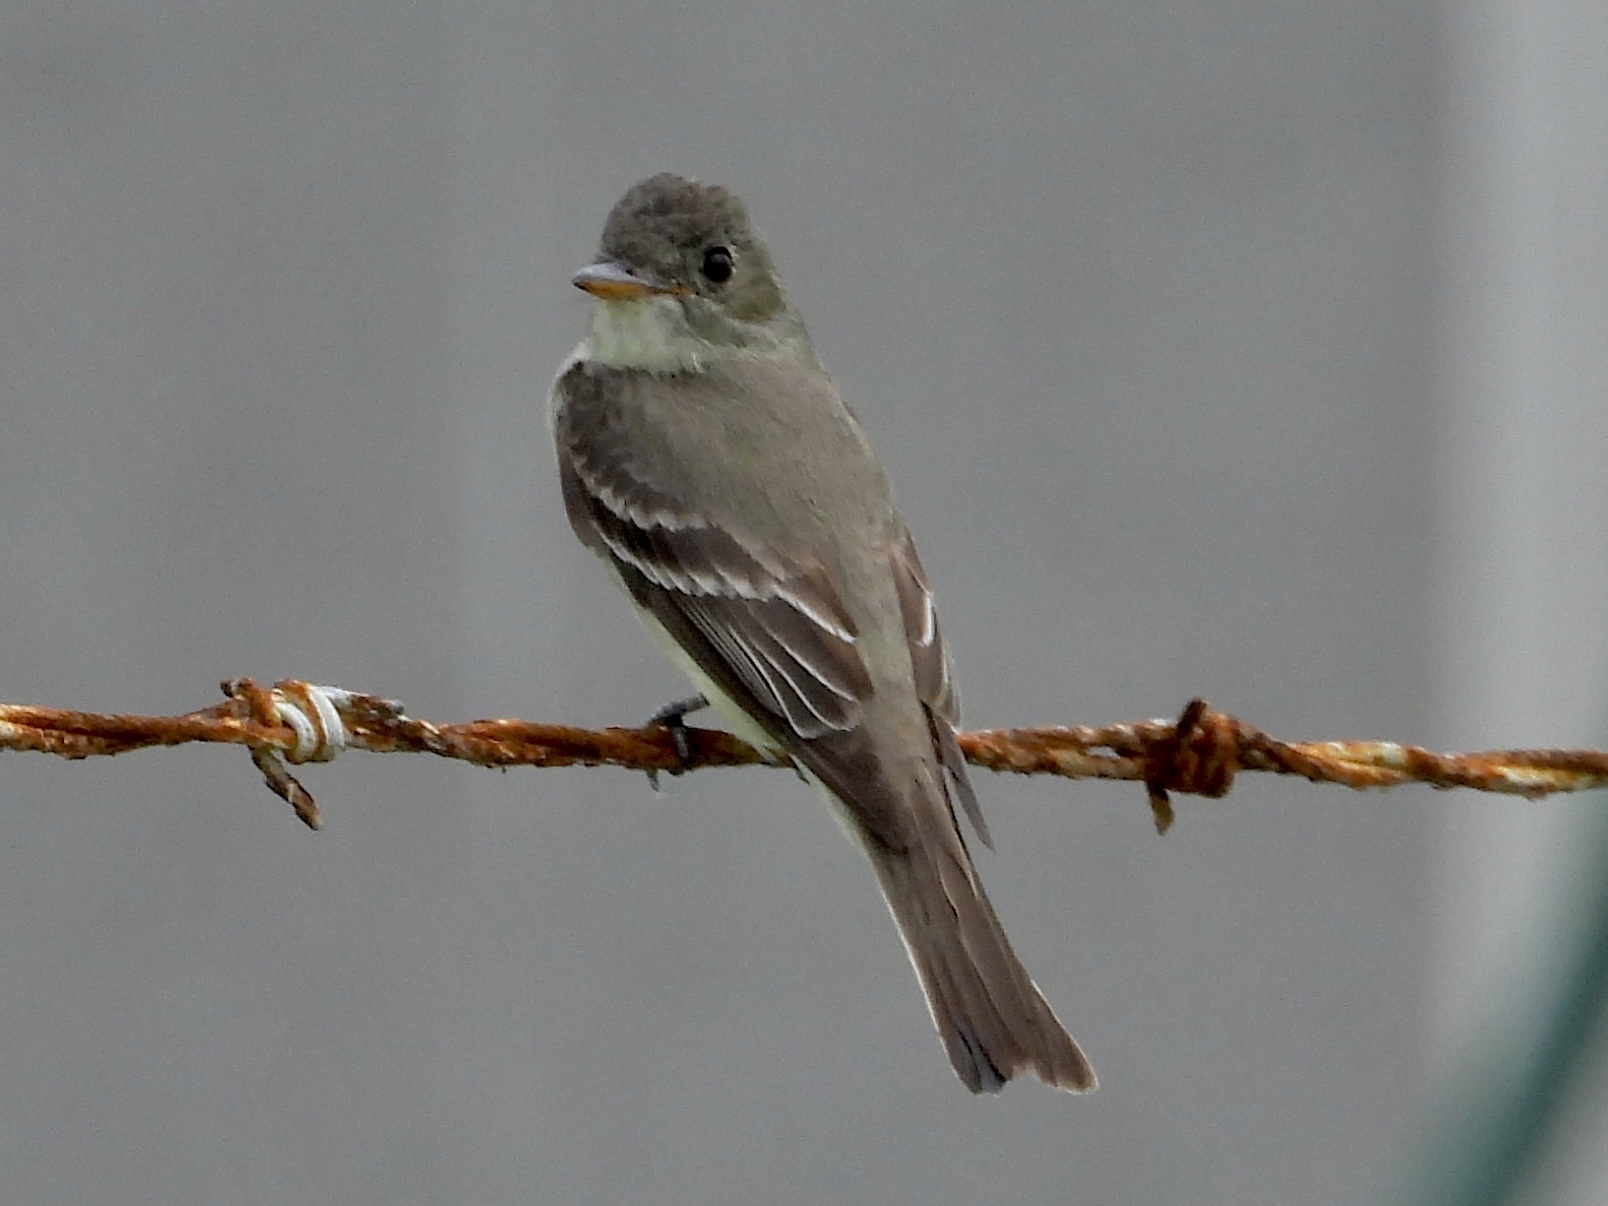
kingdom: Animalia
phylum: Chordata
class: Aves
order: Passeriformes
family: Tyrannidae
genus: Contopus
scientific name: Contopus virens
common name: Eastern wood-pewee
